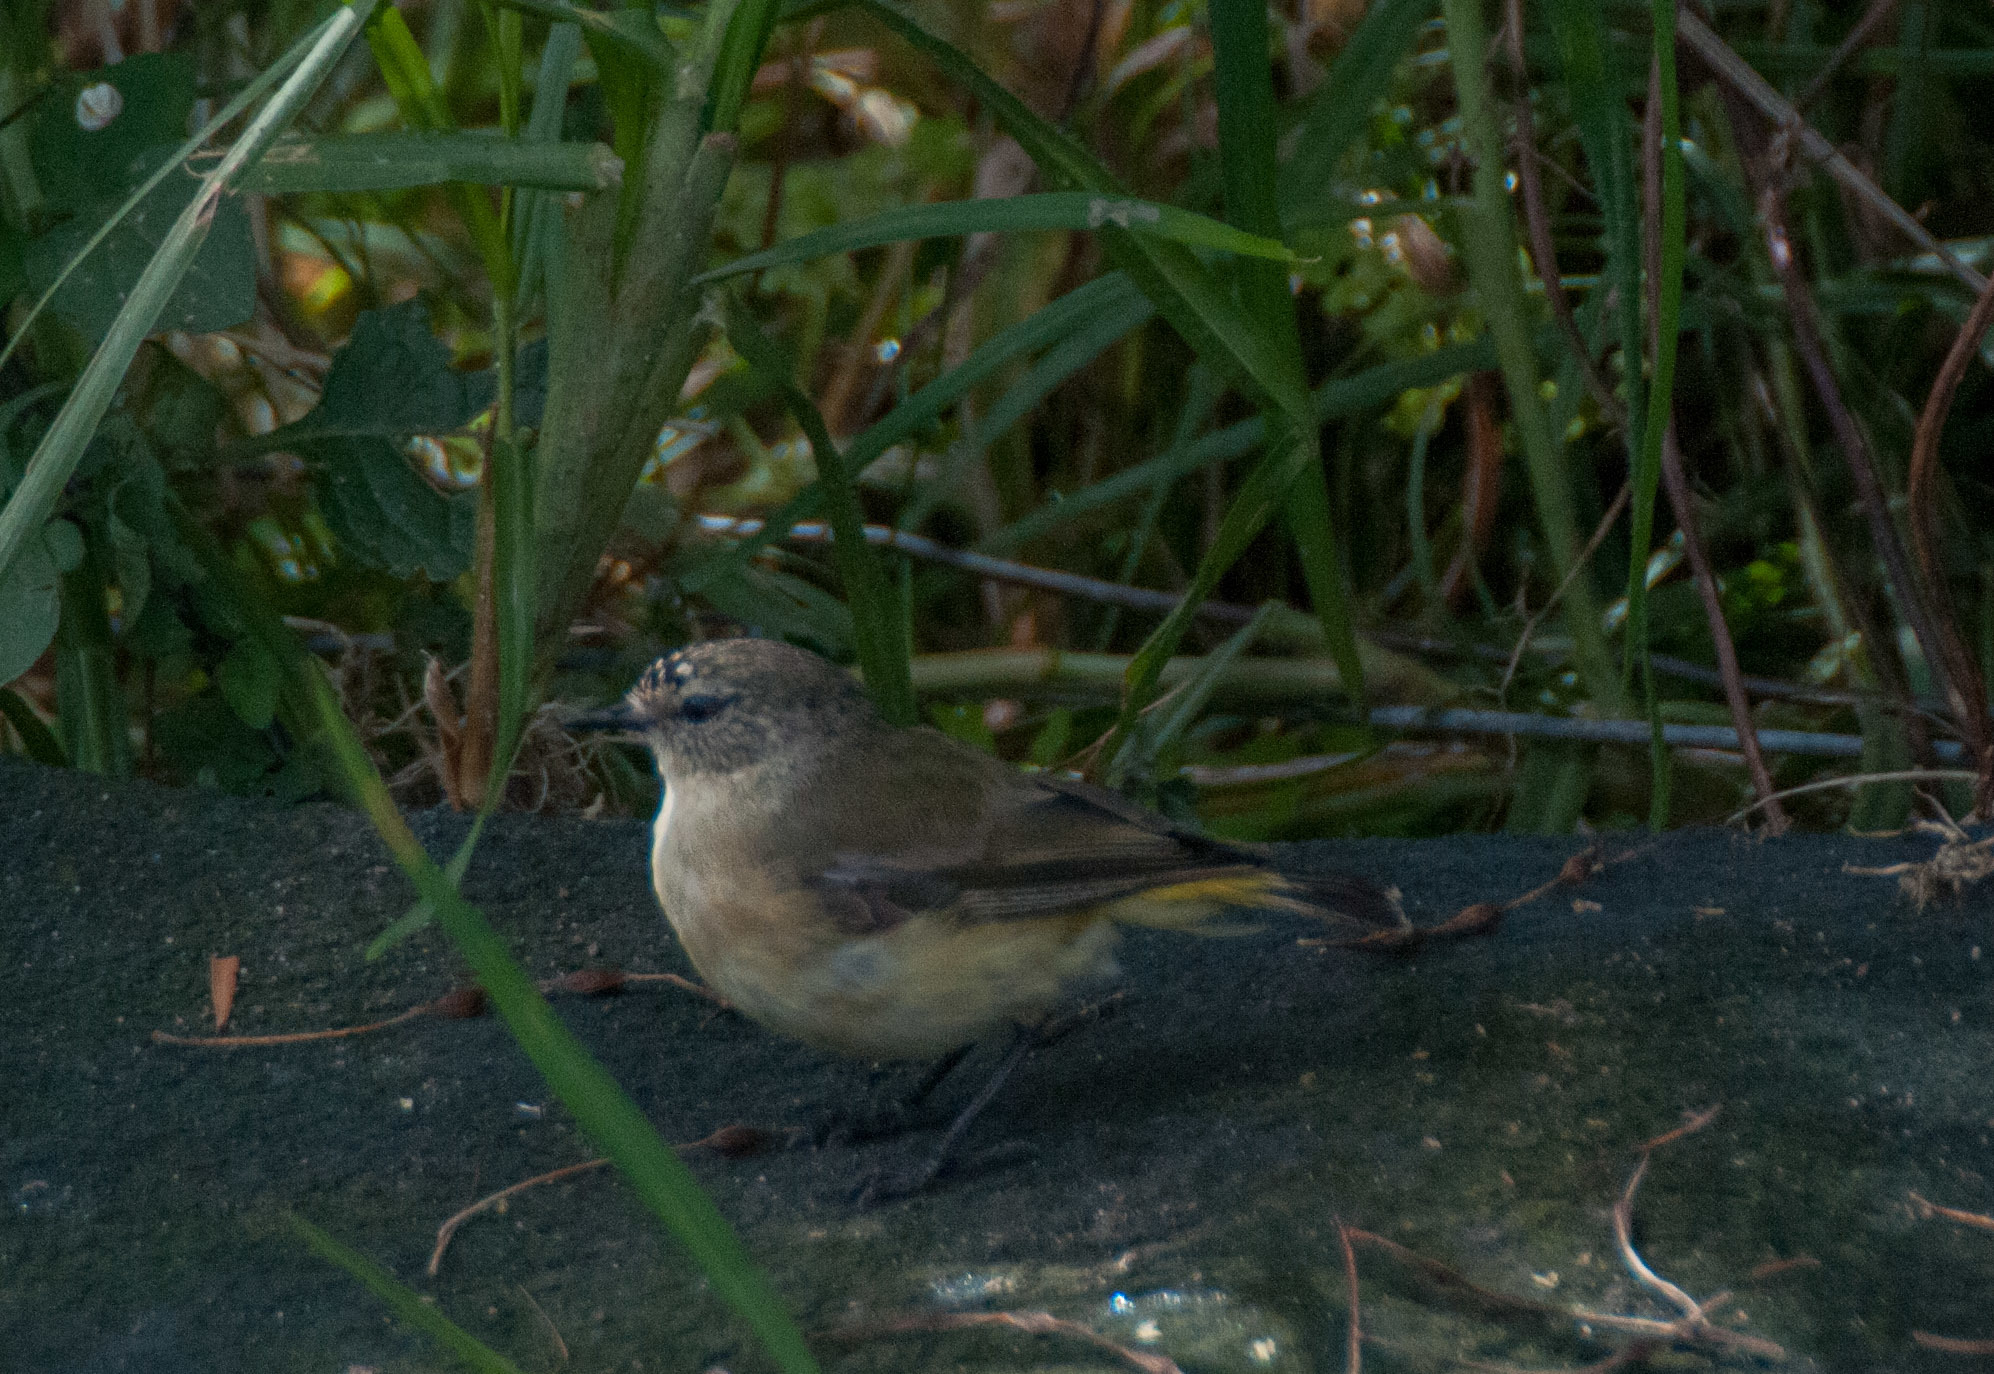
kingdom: Animalia
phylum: Chordata
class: Aves
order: Passeriformes
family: Acanthizidae
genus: Acanthiza
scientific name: Acanthiza chrysorrhoa
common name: Yellow-rumped thornbill
